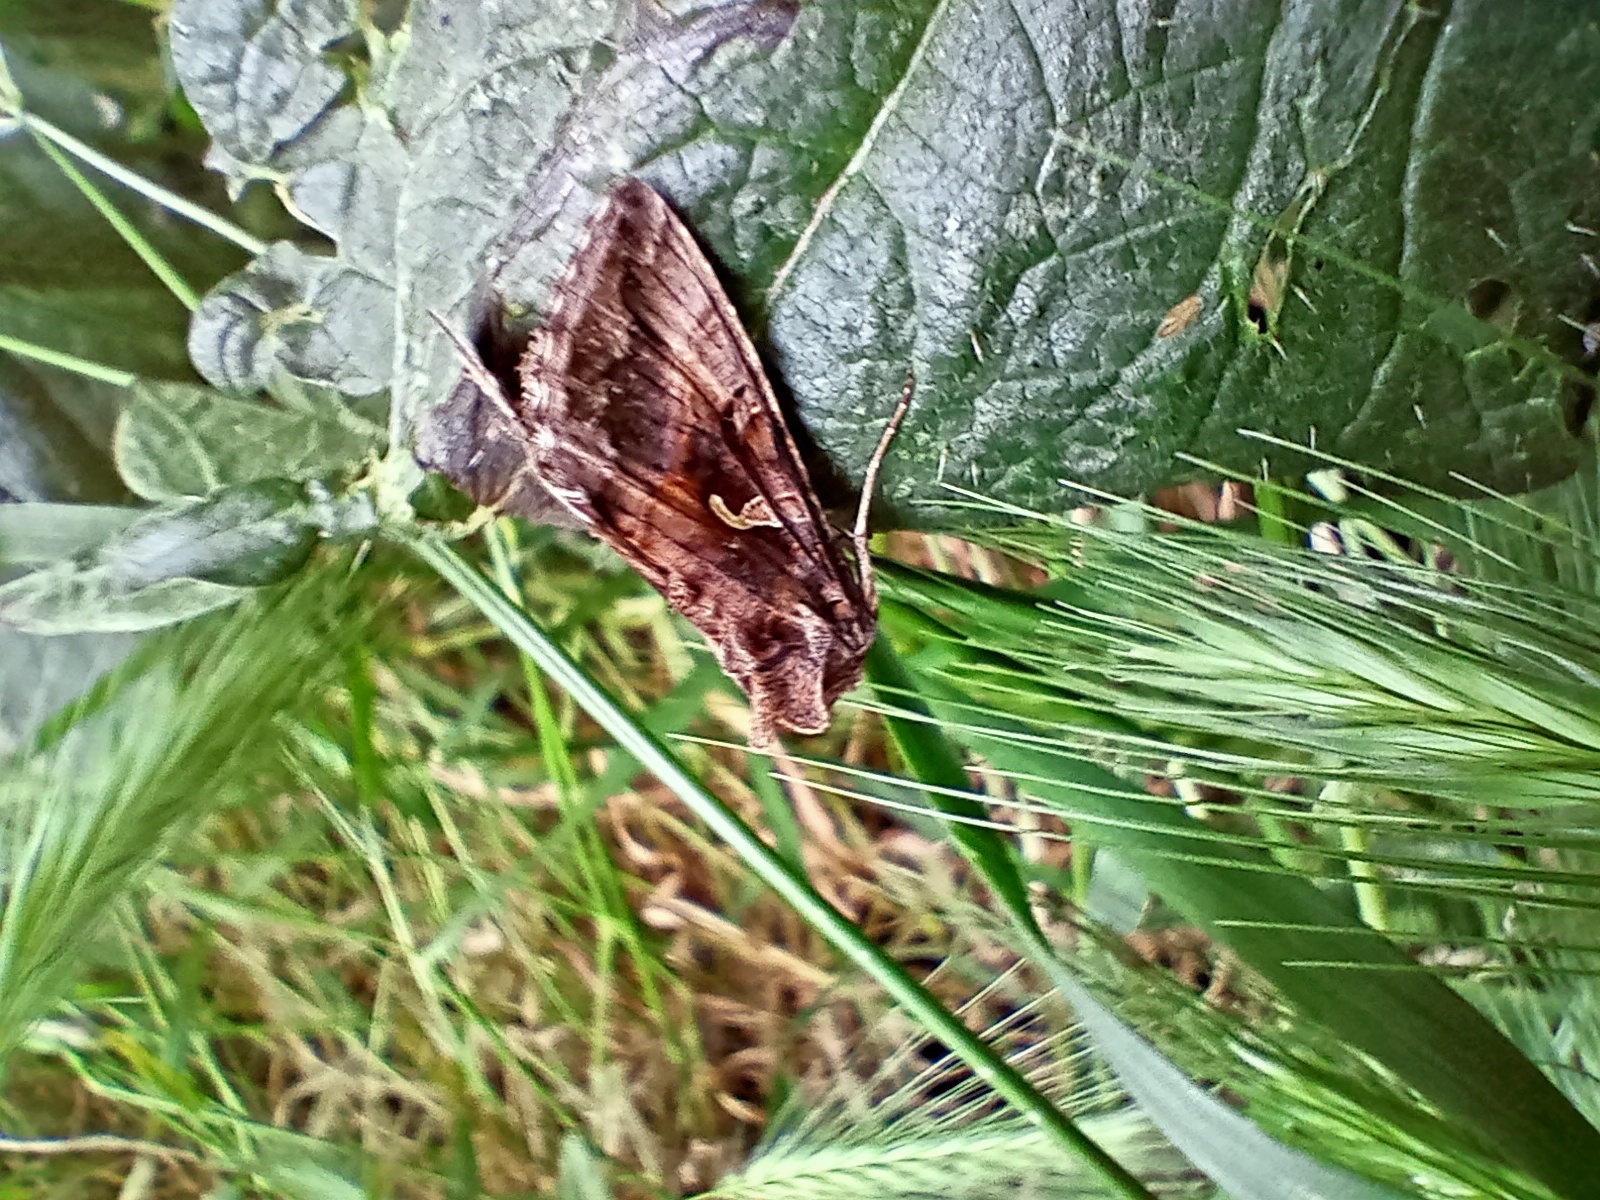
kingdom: Animalia
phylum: Arthropoda
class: Insecta
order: Lepidoptera
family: Noctuidae
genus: Autographa
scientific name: Autographa gamma
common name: Silver y
